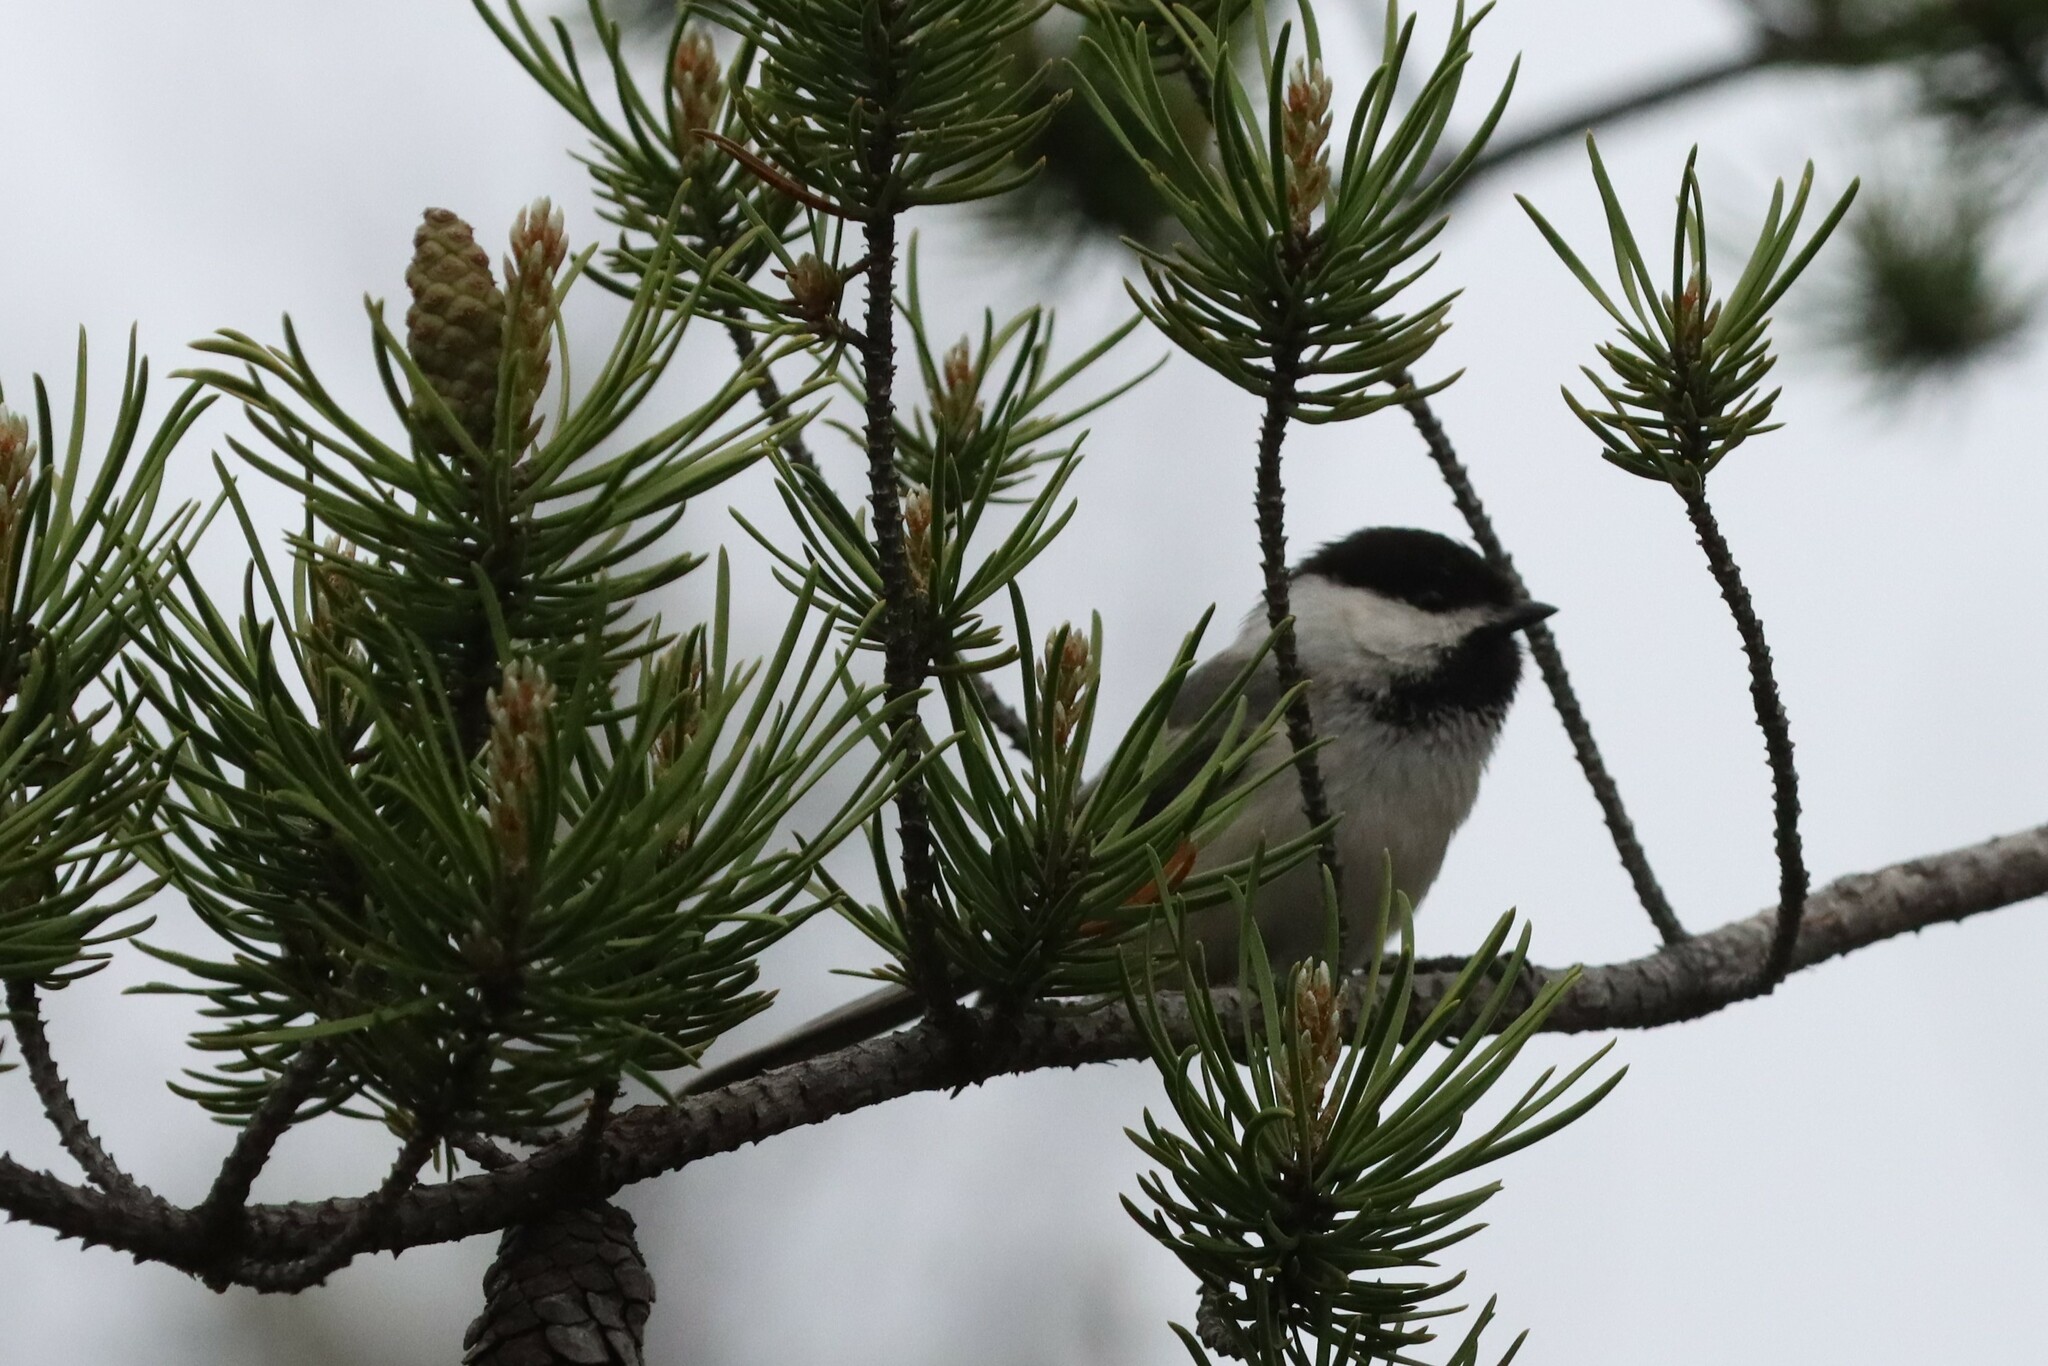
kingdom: Animalia
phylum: Chordata
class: Aves
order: Passeriformes
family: Paridae
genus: Poecile
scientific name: Poecile atricapillus
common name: Black-capped chickadee
